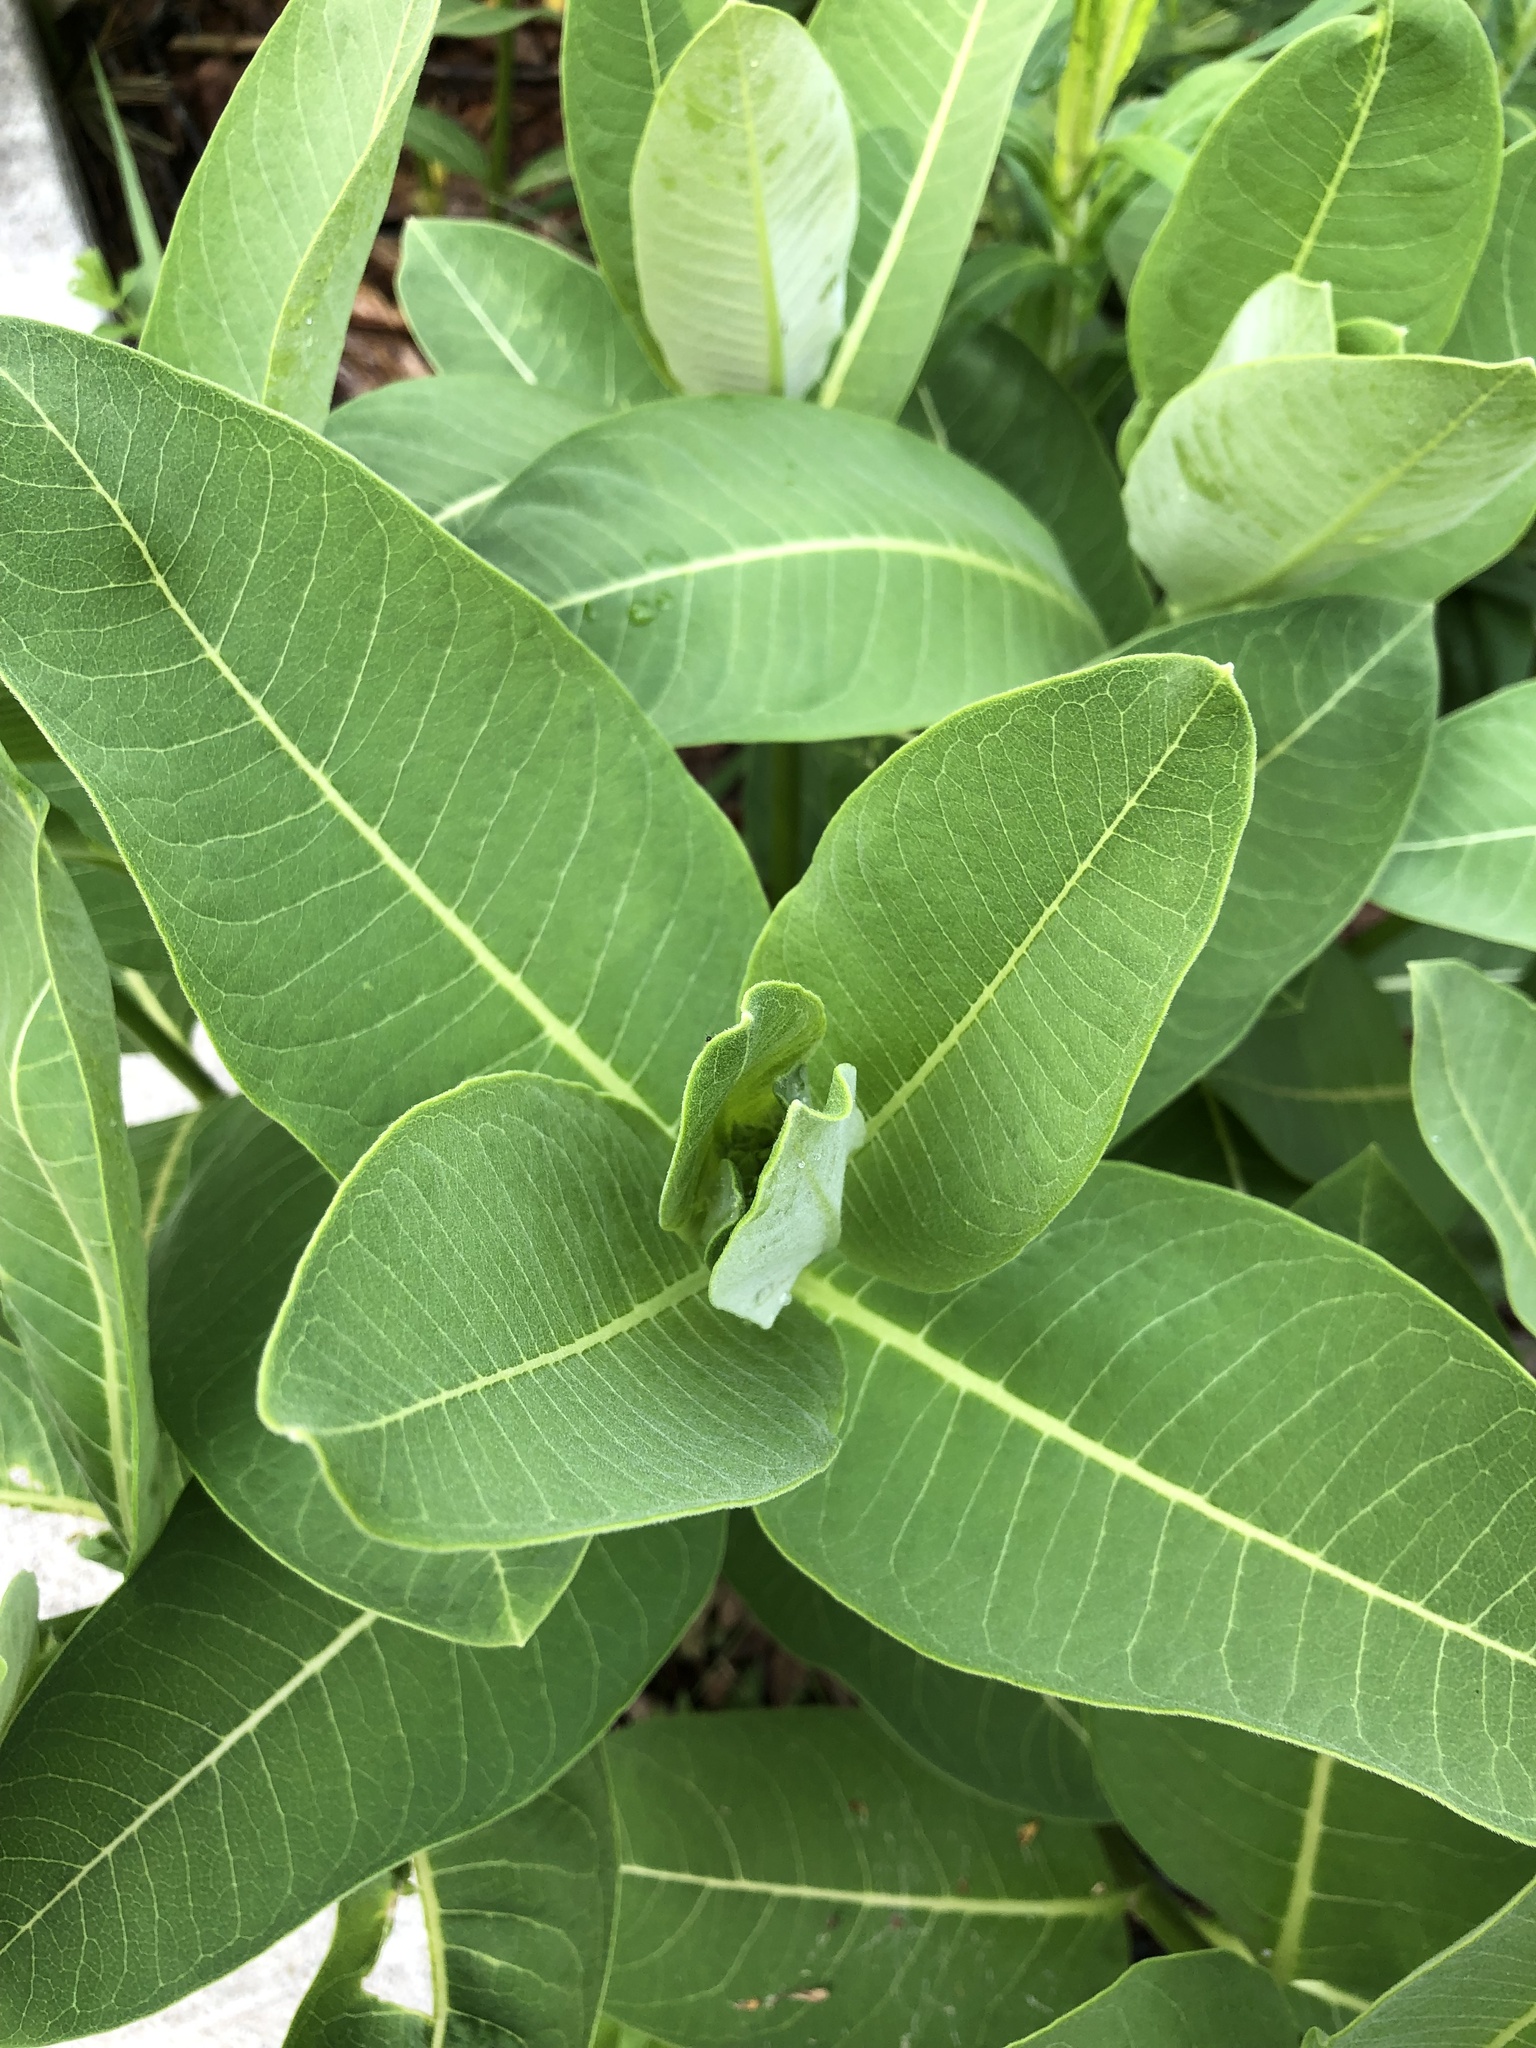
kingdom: Plantae
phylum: Tracheophyta
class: Magnoliopsida
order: Gentianales
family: Apocynaceae
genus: Asclepias
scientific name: Asclepias syriaca
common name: Common milkweed
